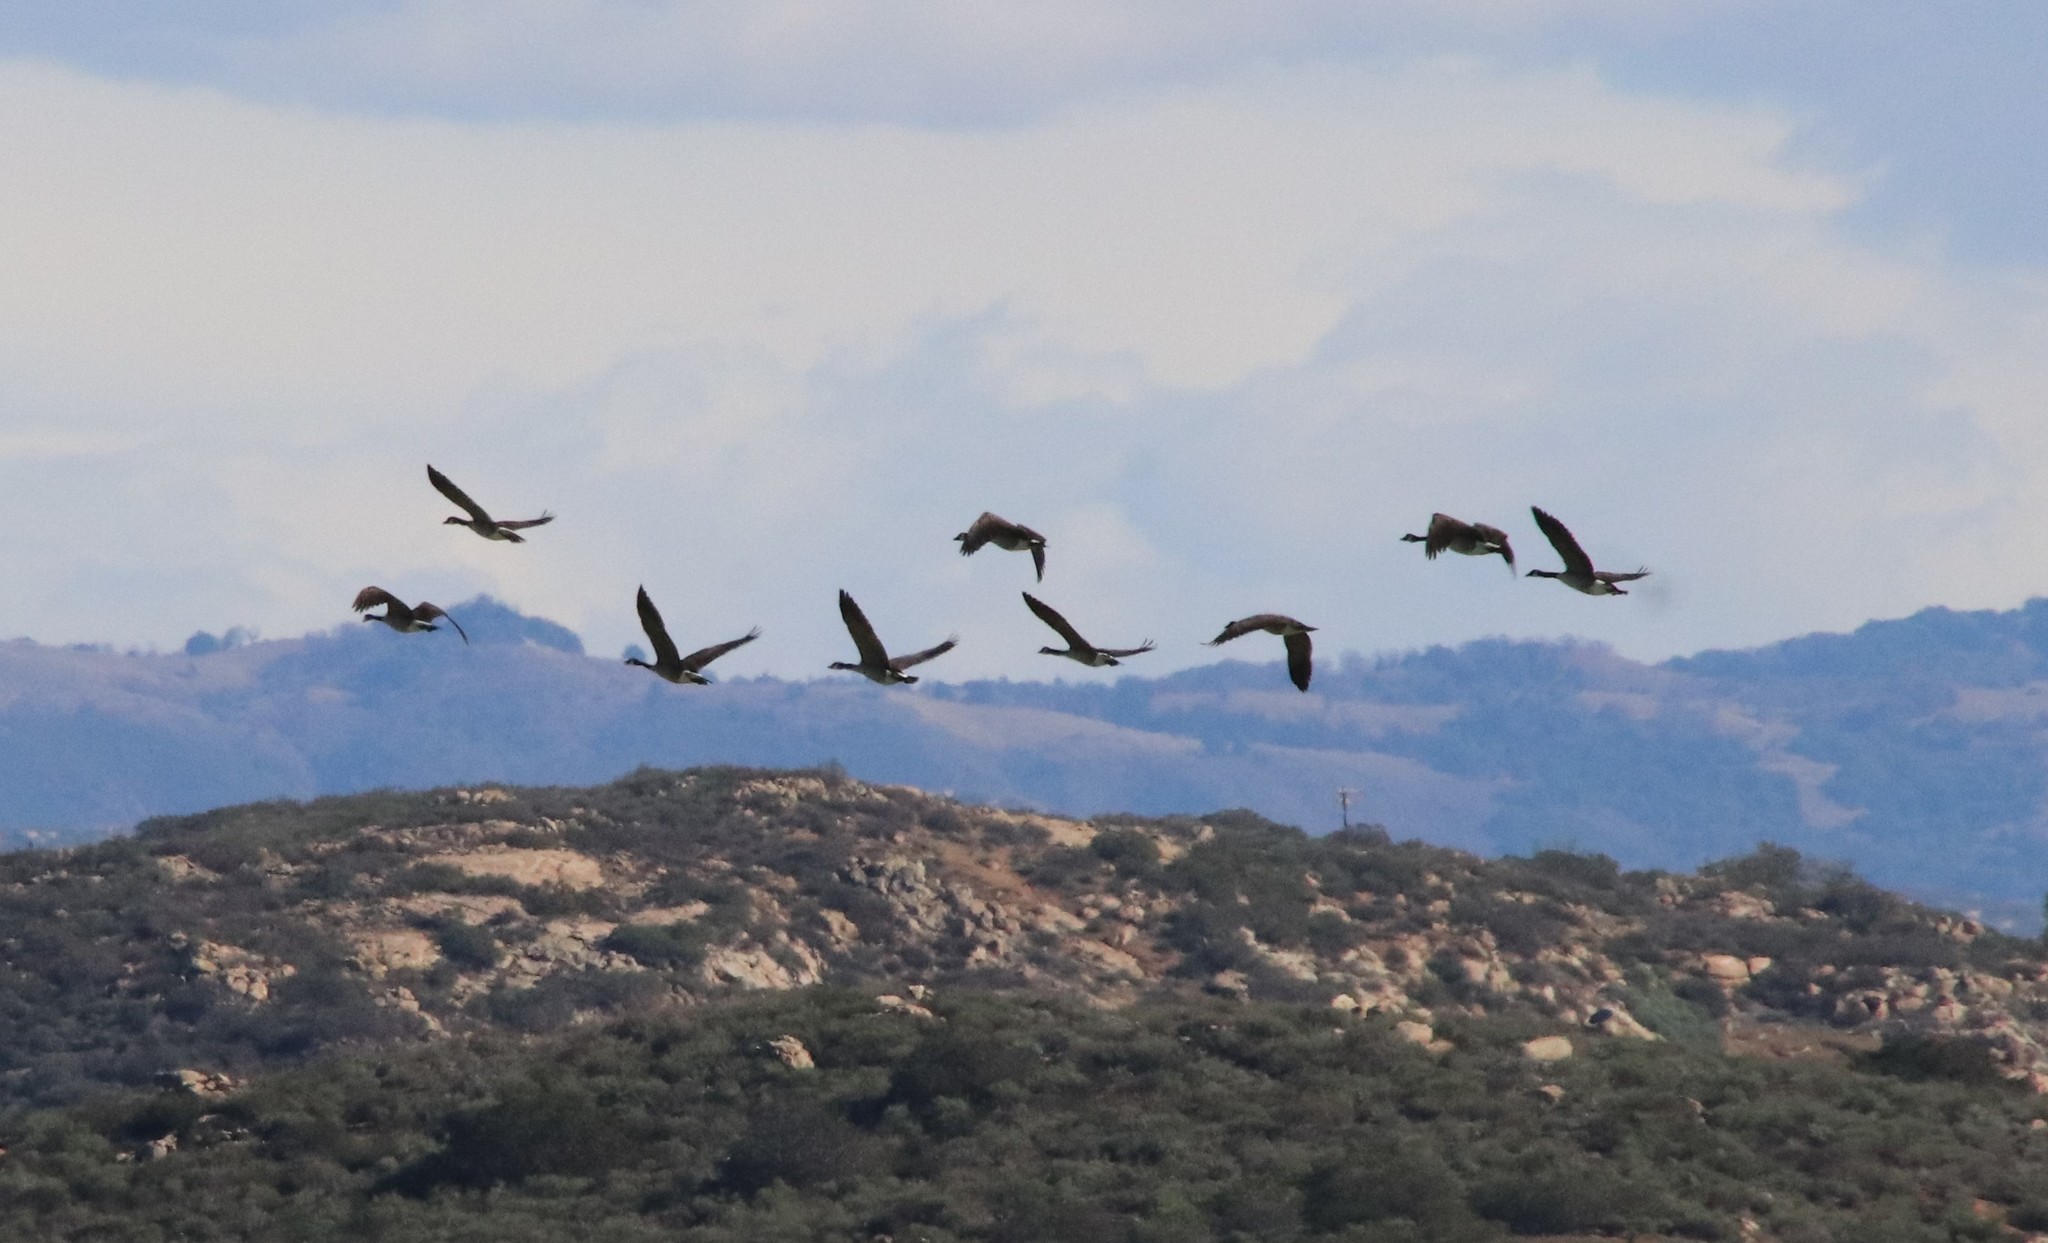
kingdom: Animalia
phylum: Chordata
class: Aves
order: Anseriformes
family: Anatidae
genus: Branta
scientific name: Branta canadensis
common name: Canada goose
